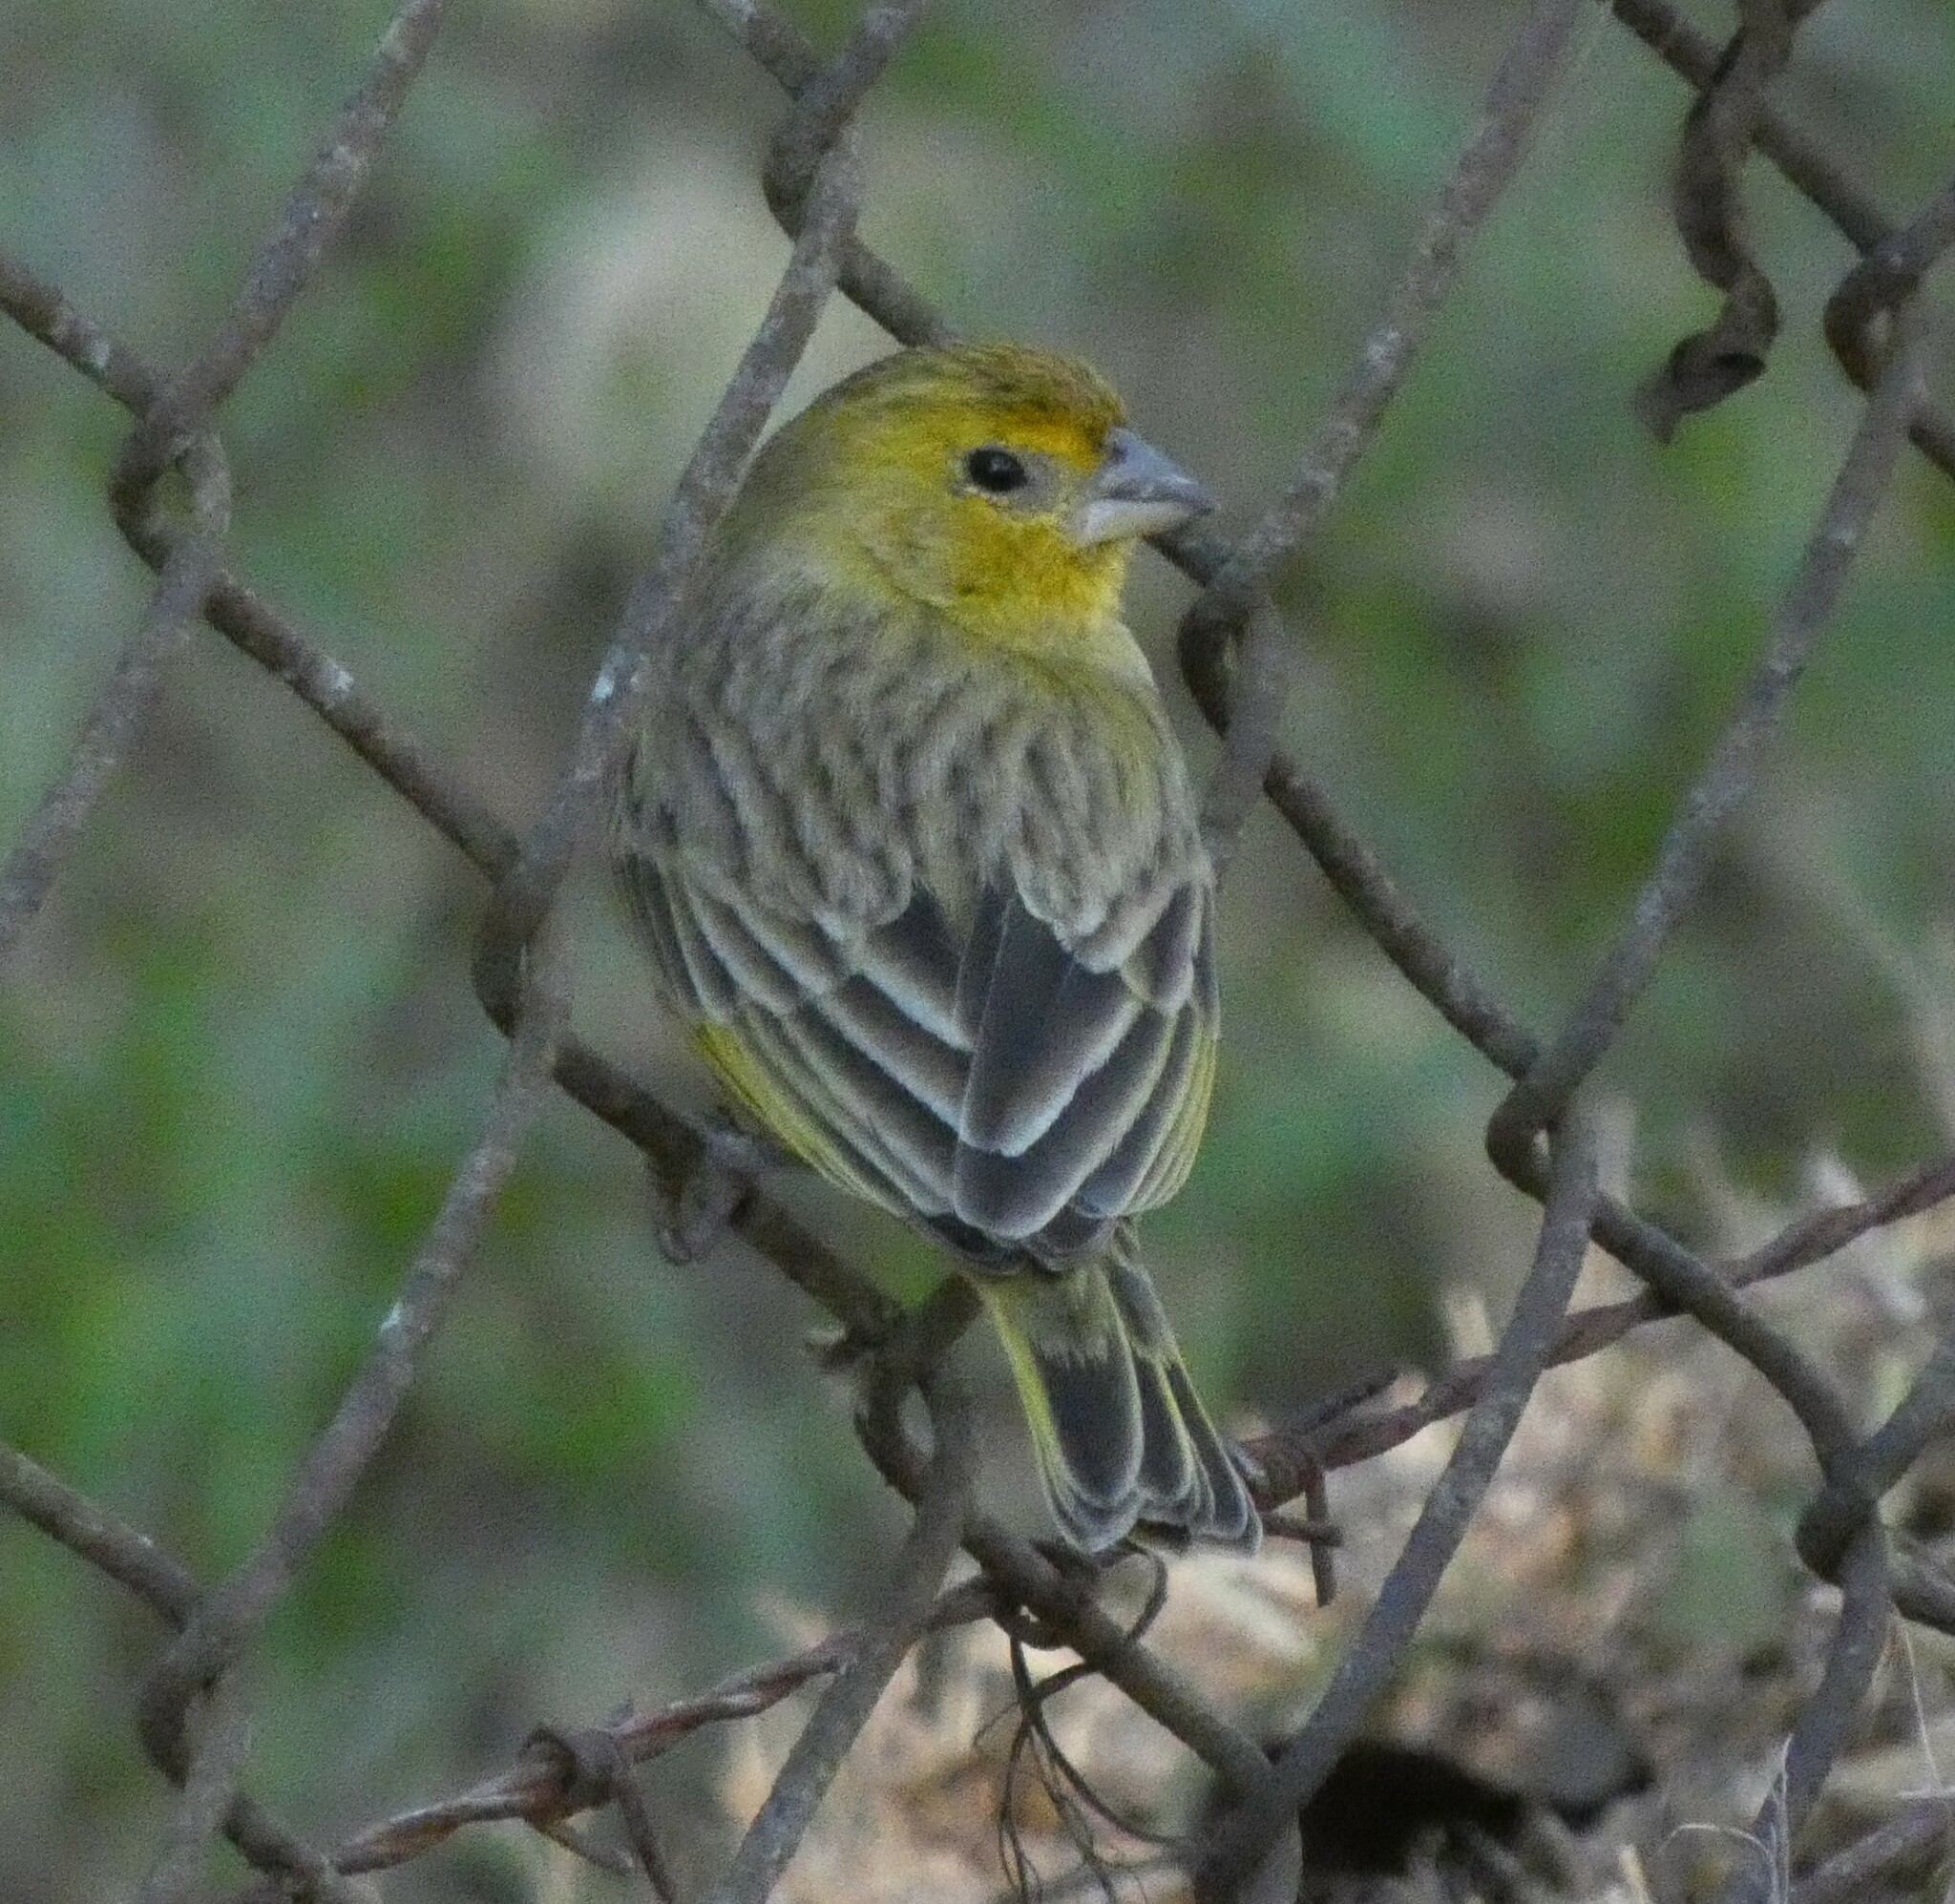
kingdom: Animalia
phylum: Chordata
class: Aves
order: Passeriformes
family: Thraupidae
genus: Sicalis
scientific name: Sicalis flaveola
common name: Saffron finch
